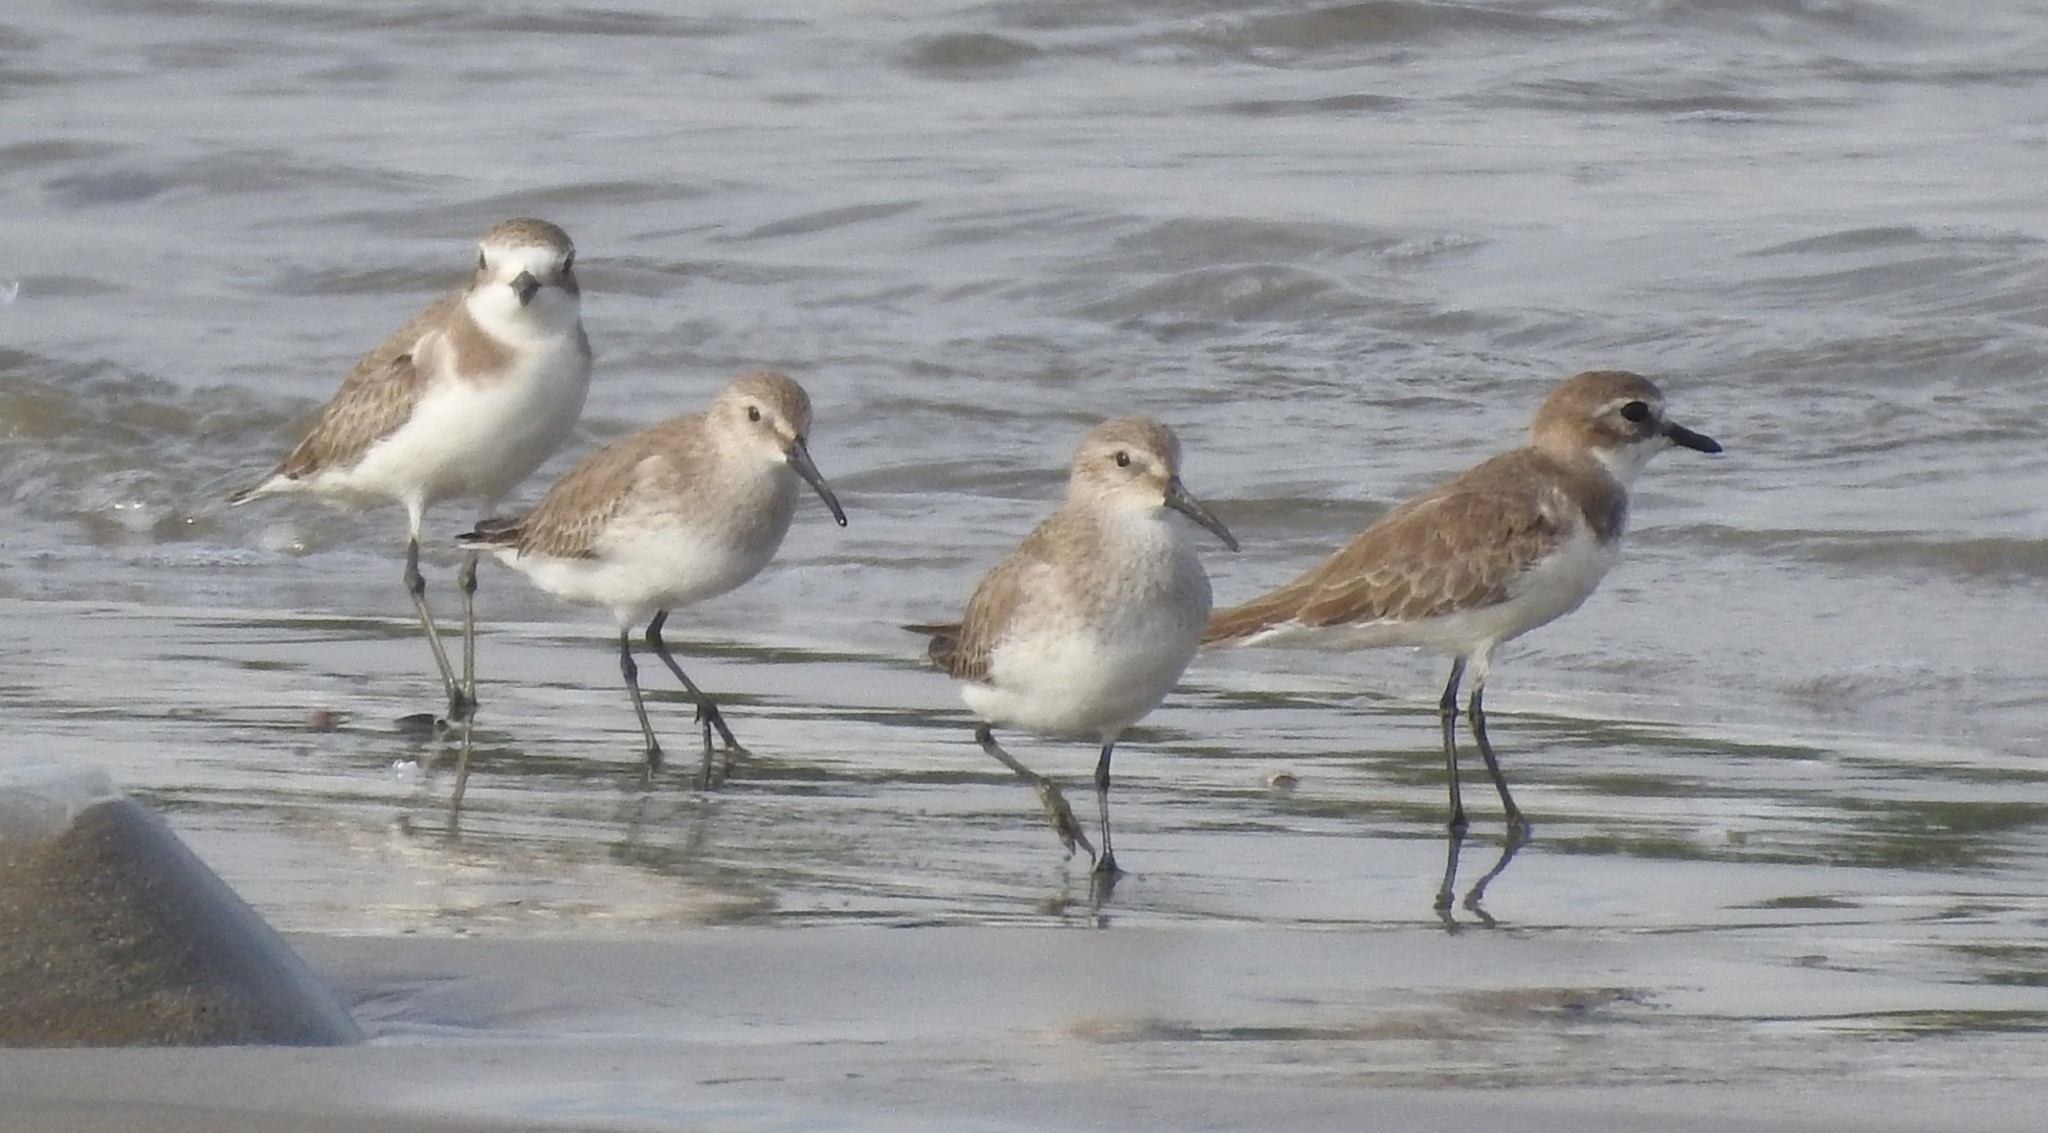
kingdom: Animalia
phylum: Chordata
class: Aves
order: Charadriiformes
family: Scolopacidae
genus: Calidris
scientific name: Calidris alpina
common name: Dunlin
